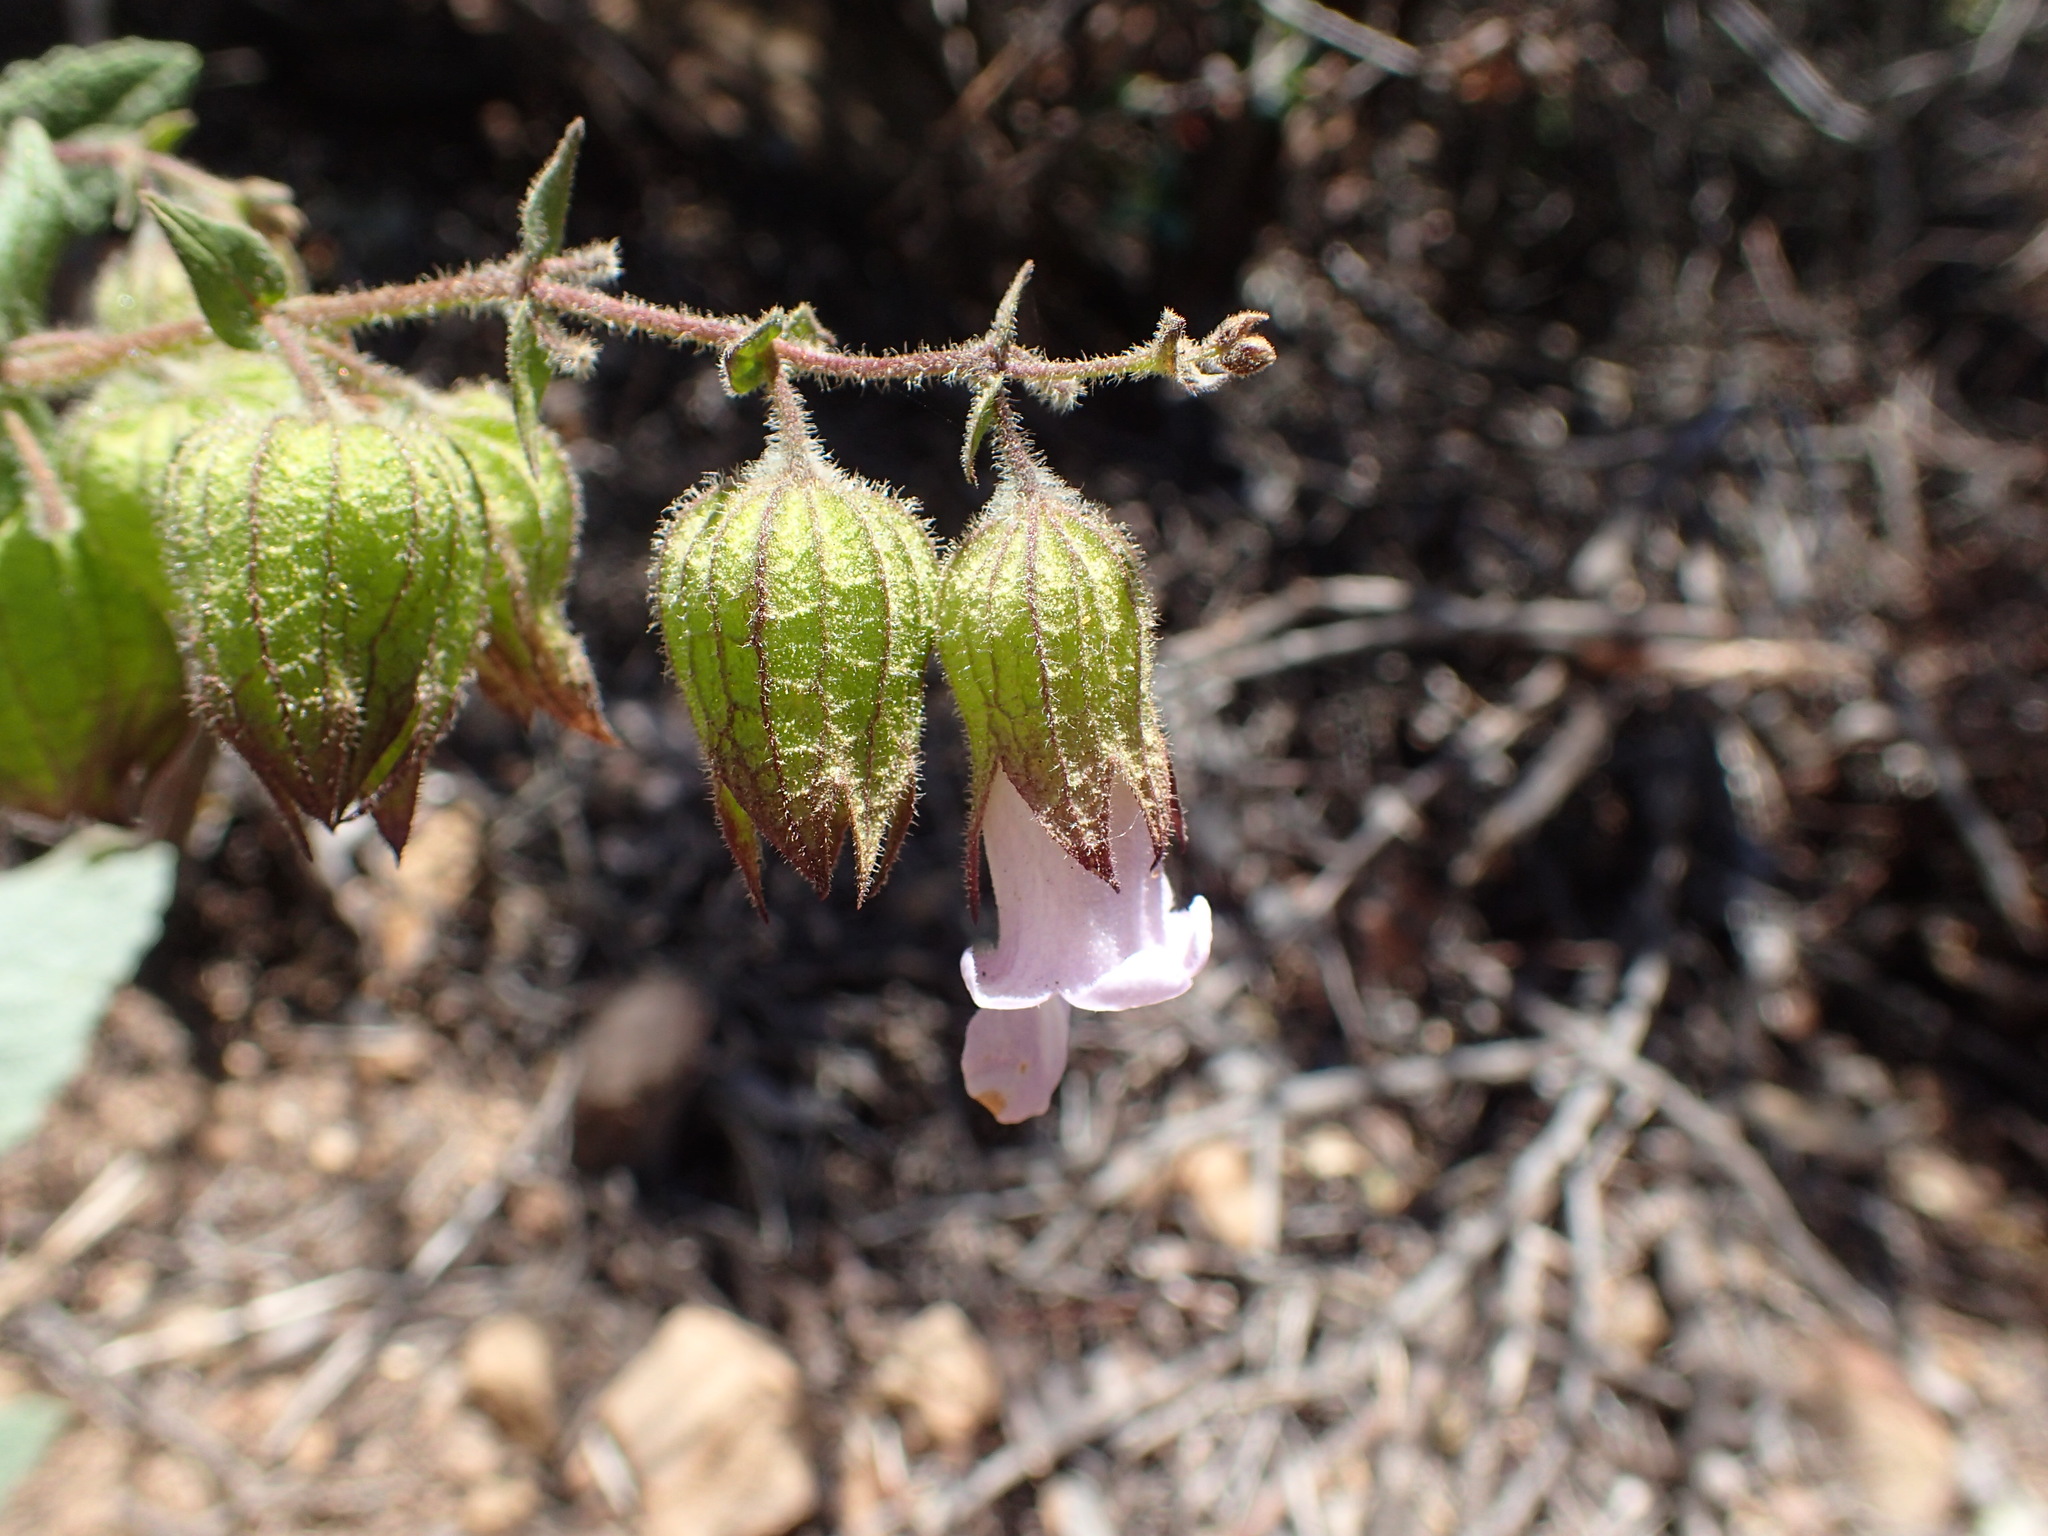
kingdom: Plantae
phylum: Tracheophyta
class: Magnoliopsida
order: Lamiales
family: Lamiaceae
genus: Lepechinia
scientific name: Lepechinia calycina
